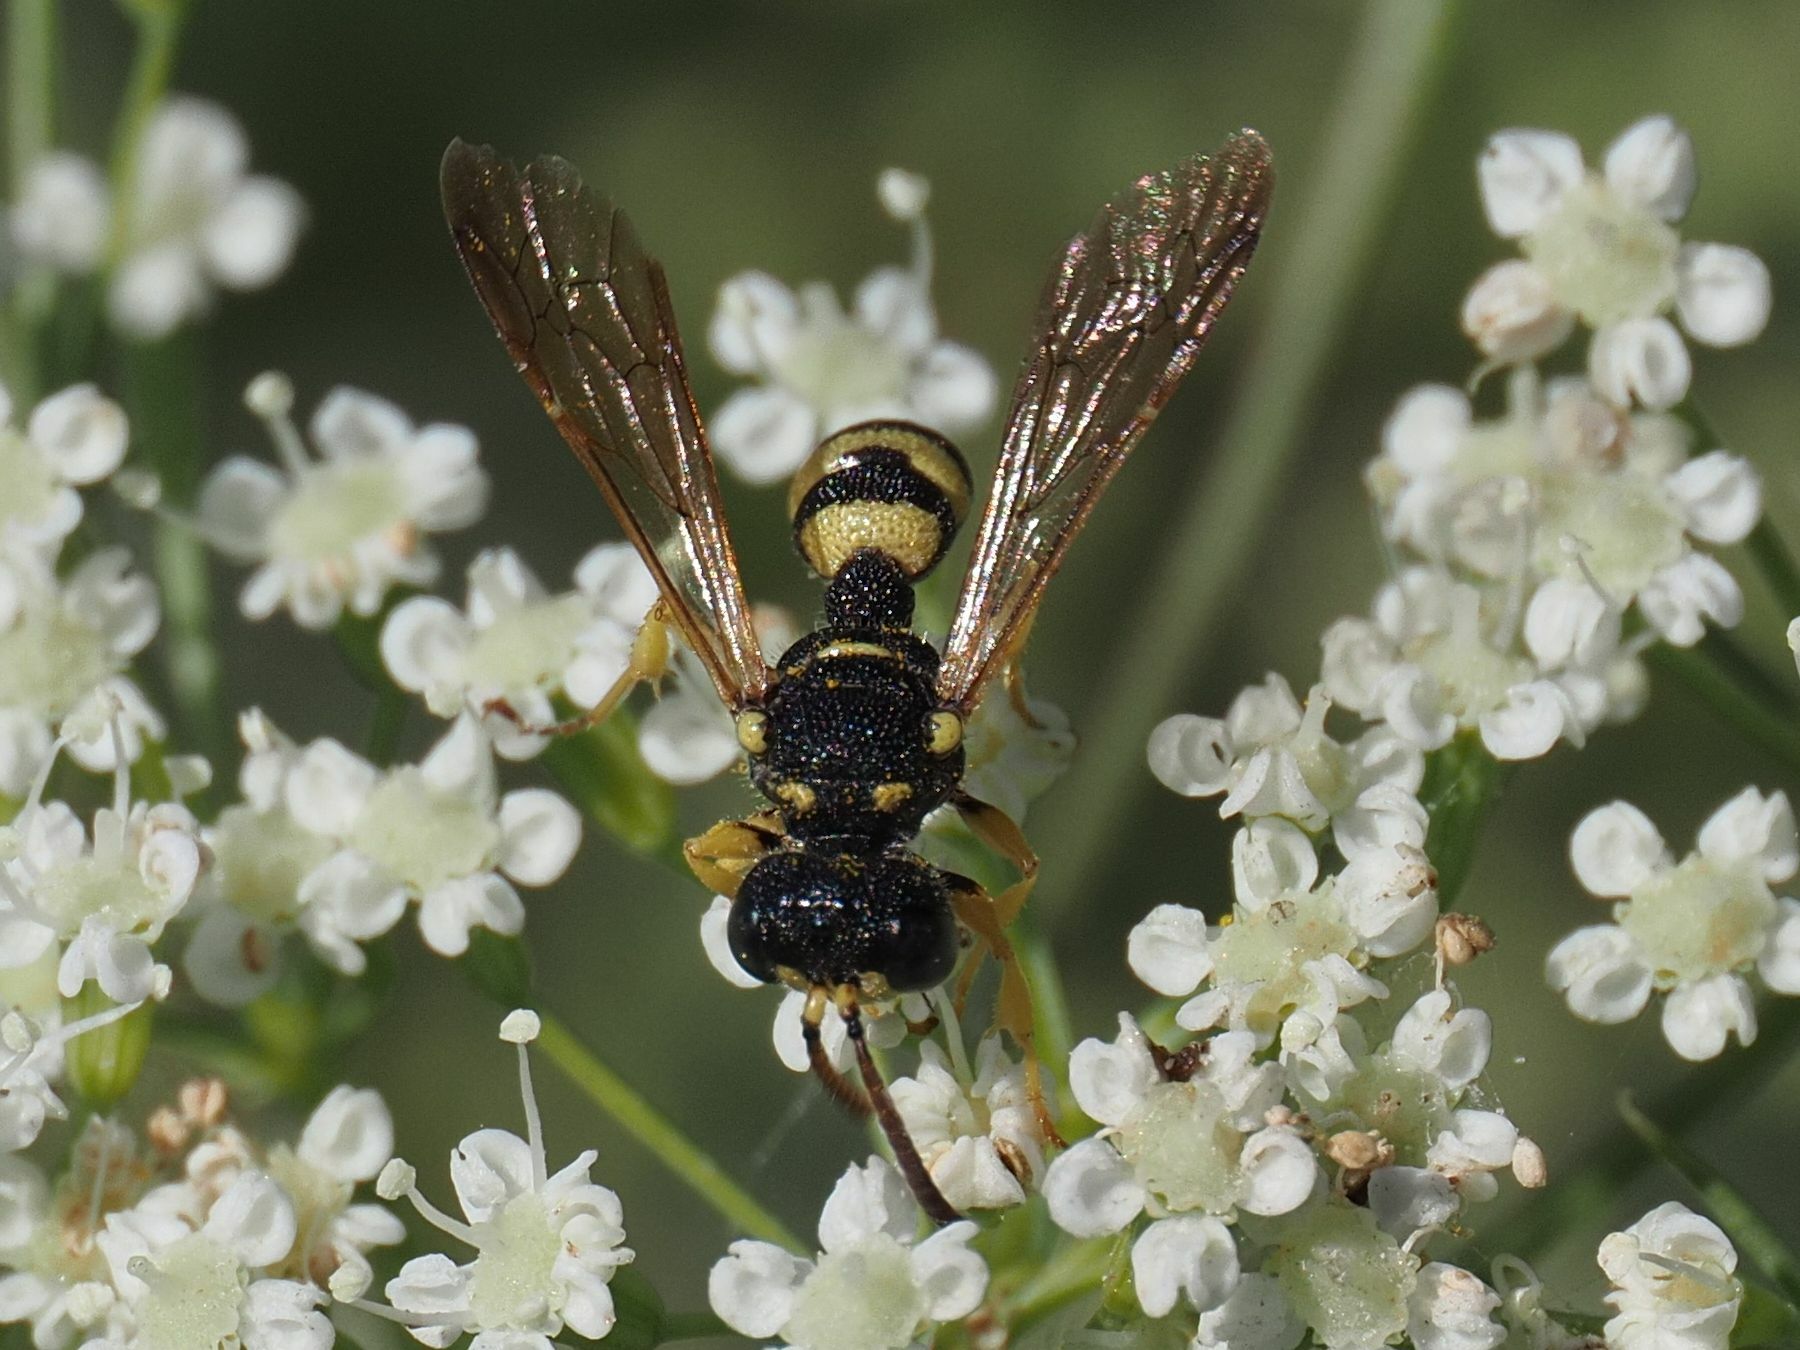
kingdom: Animalia
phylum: Arthropoda
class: Insecta
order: Hymenoptera
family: Crabronidae
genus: Cerceris
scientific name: Cerceris rybyensis
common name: Ornate tailed digger wasp
